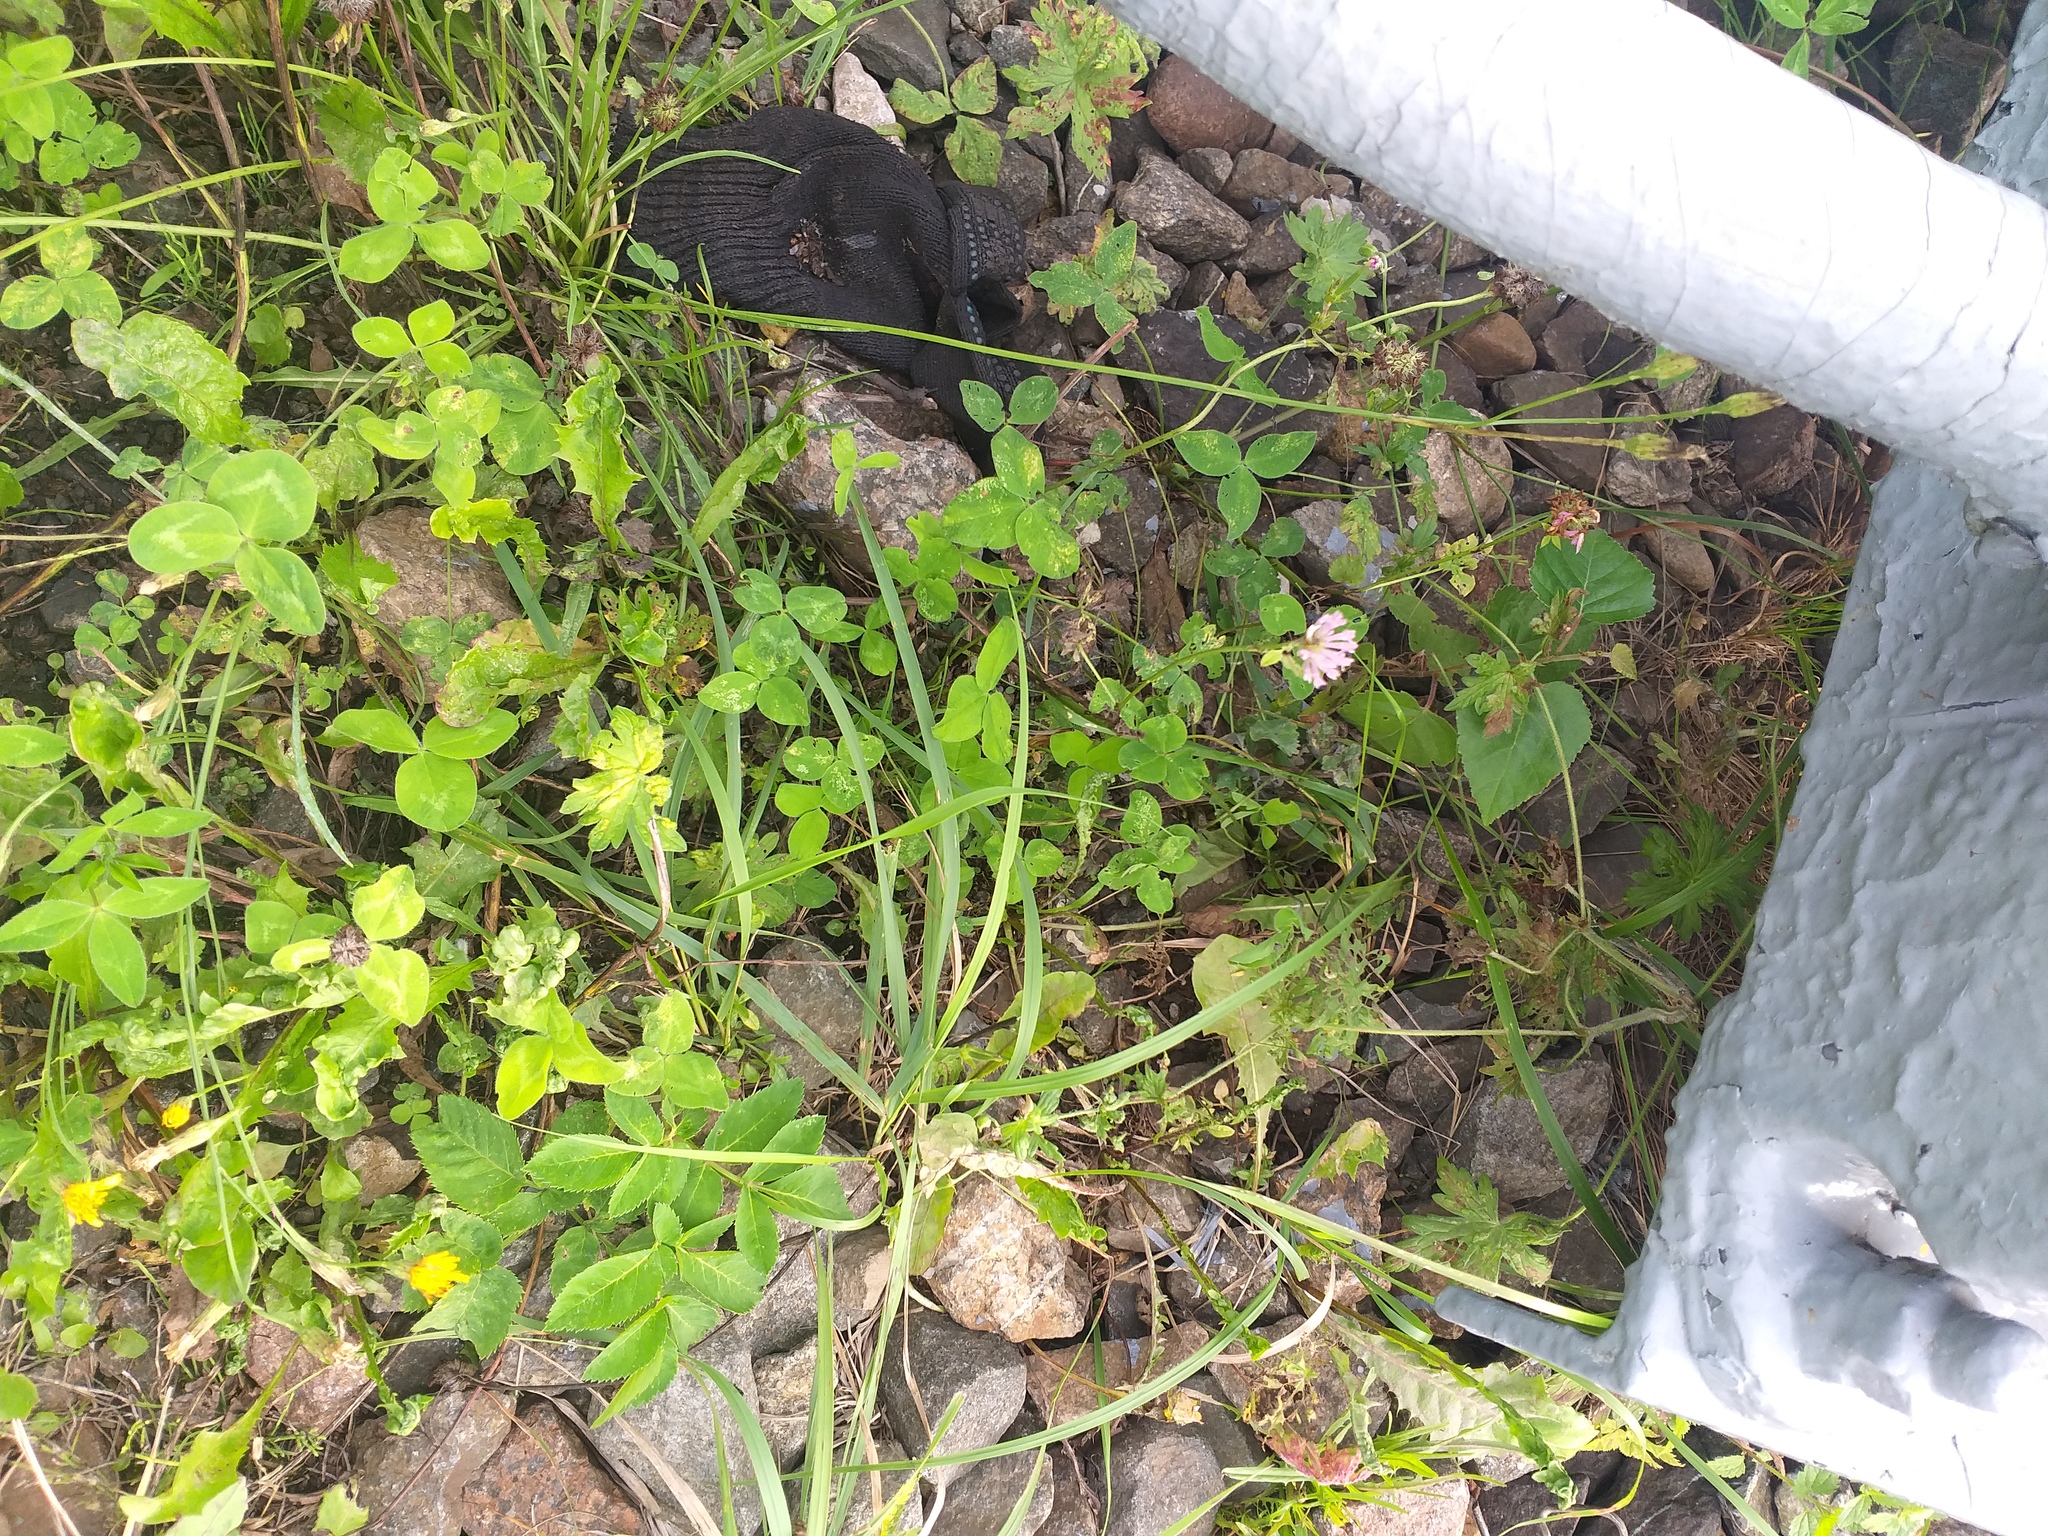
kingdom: Plantae
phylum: Tracheophyta
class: Magnoliopsida
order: Fabales
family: Fabaceae
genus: Trifolium
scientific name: Trifolium pratense
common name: Red clover
